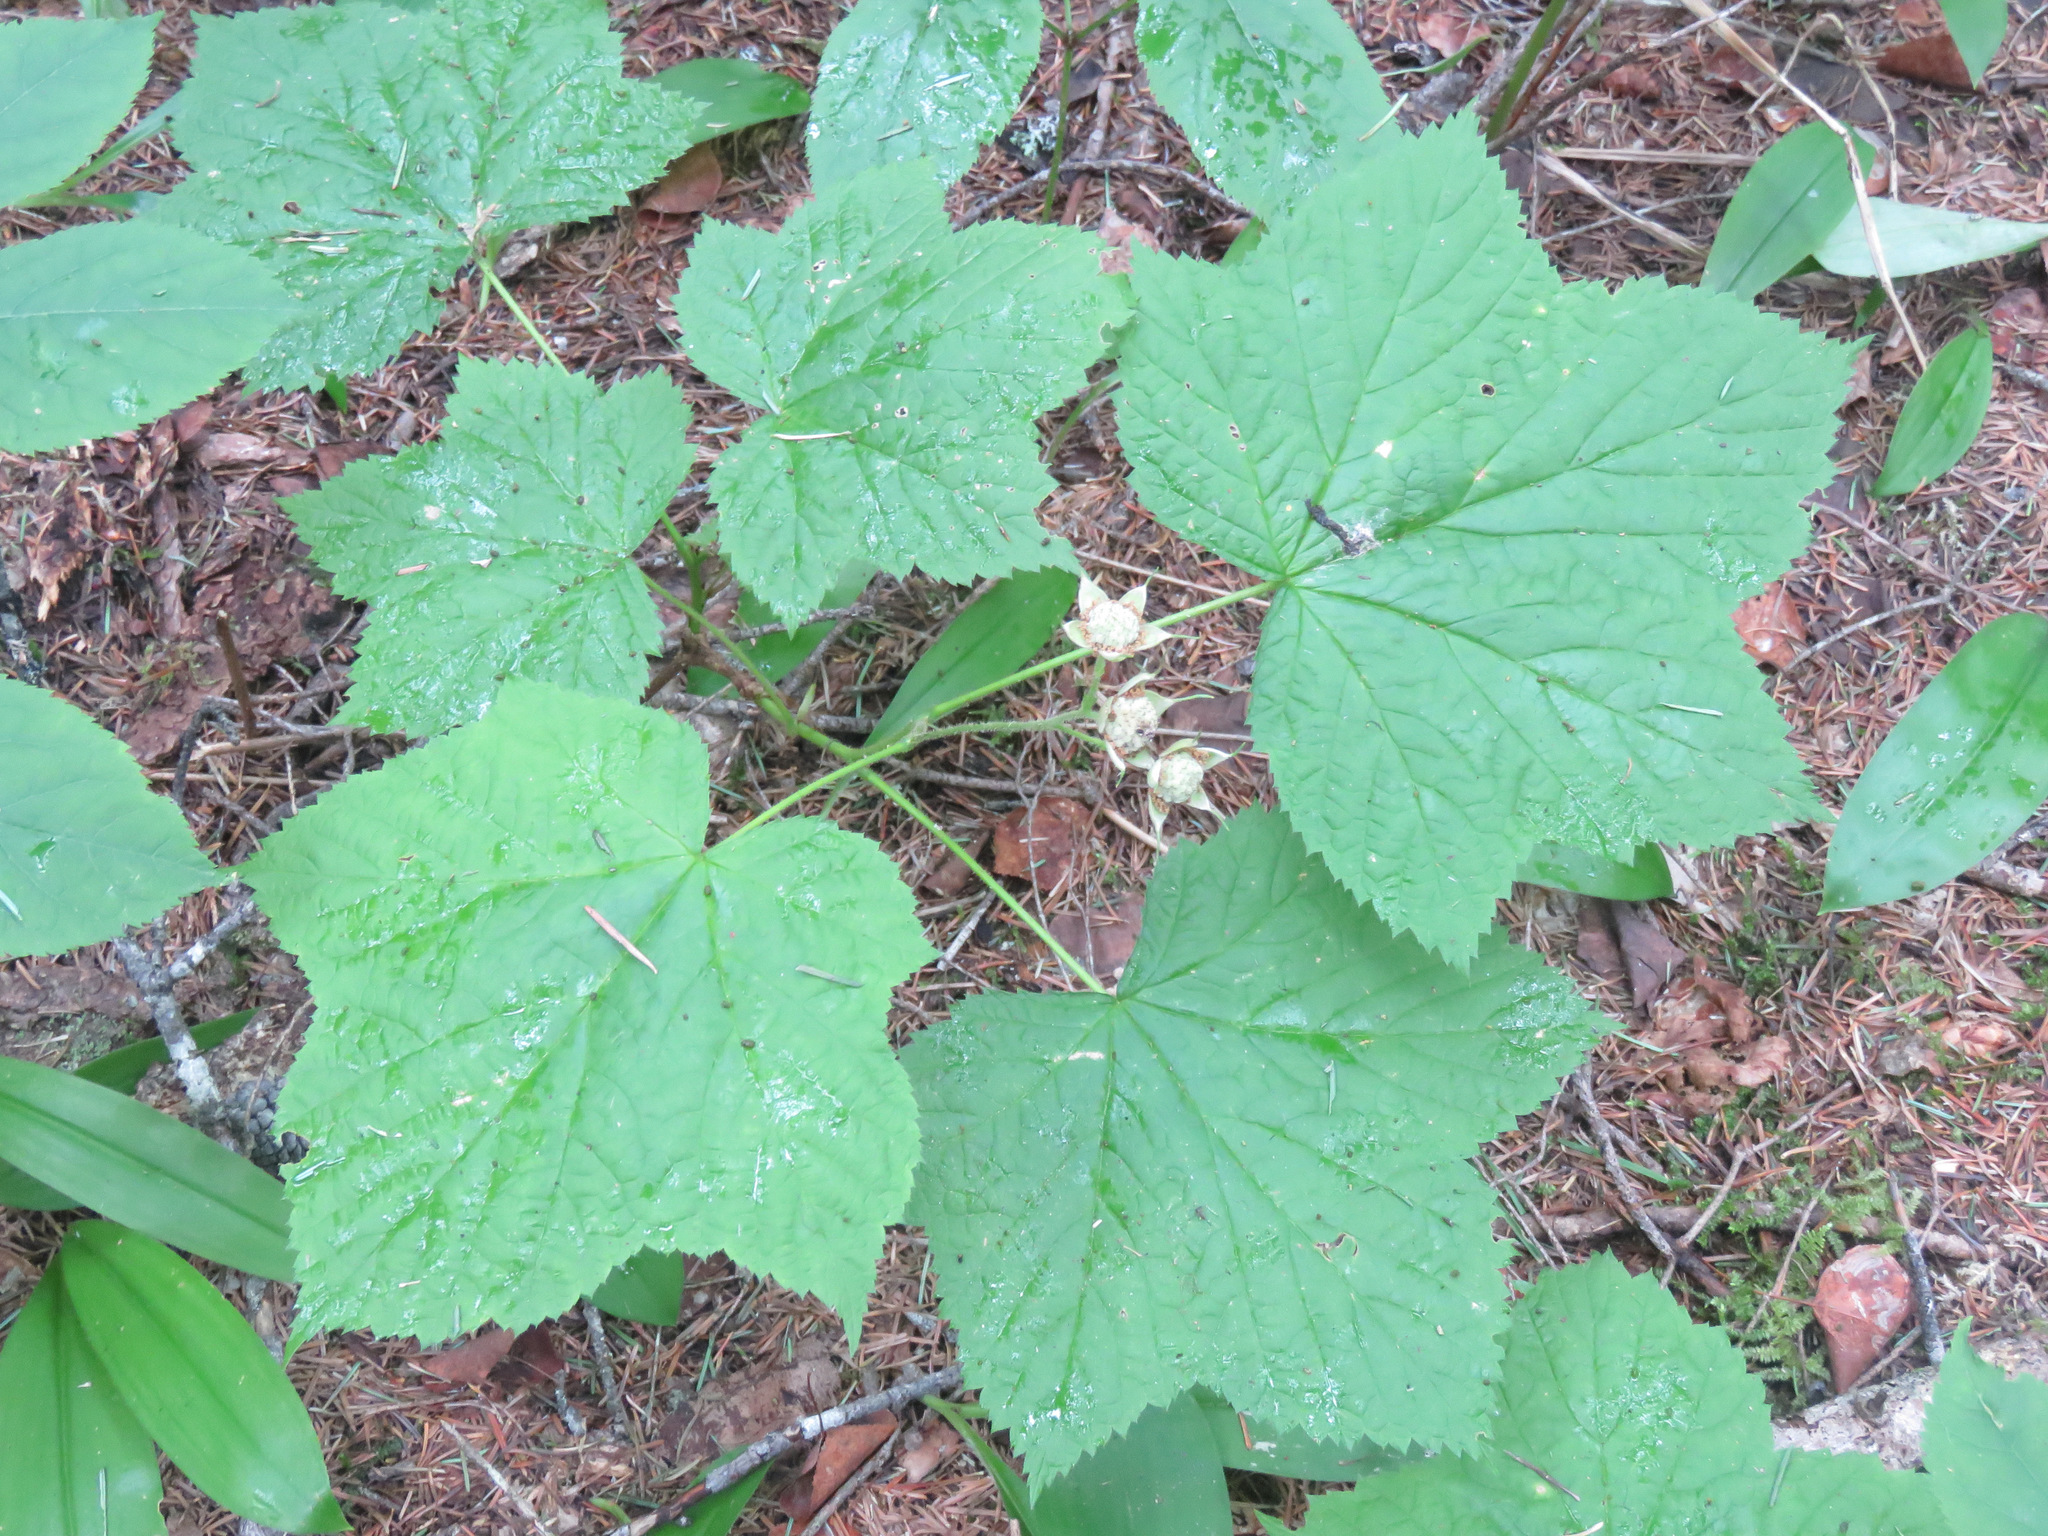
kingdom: Plantae
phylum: Tracheophyta
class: Magnoliopsida
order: Rosales
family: Rosaceae
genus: Rubus
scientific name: Rubus parviflorus
